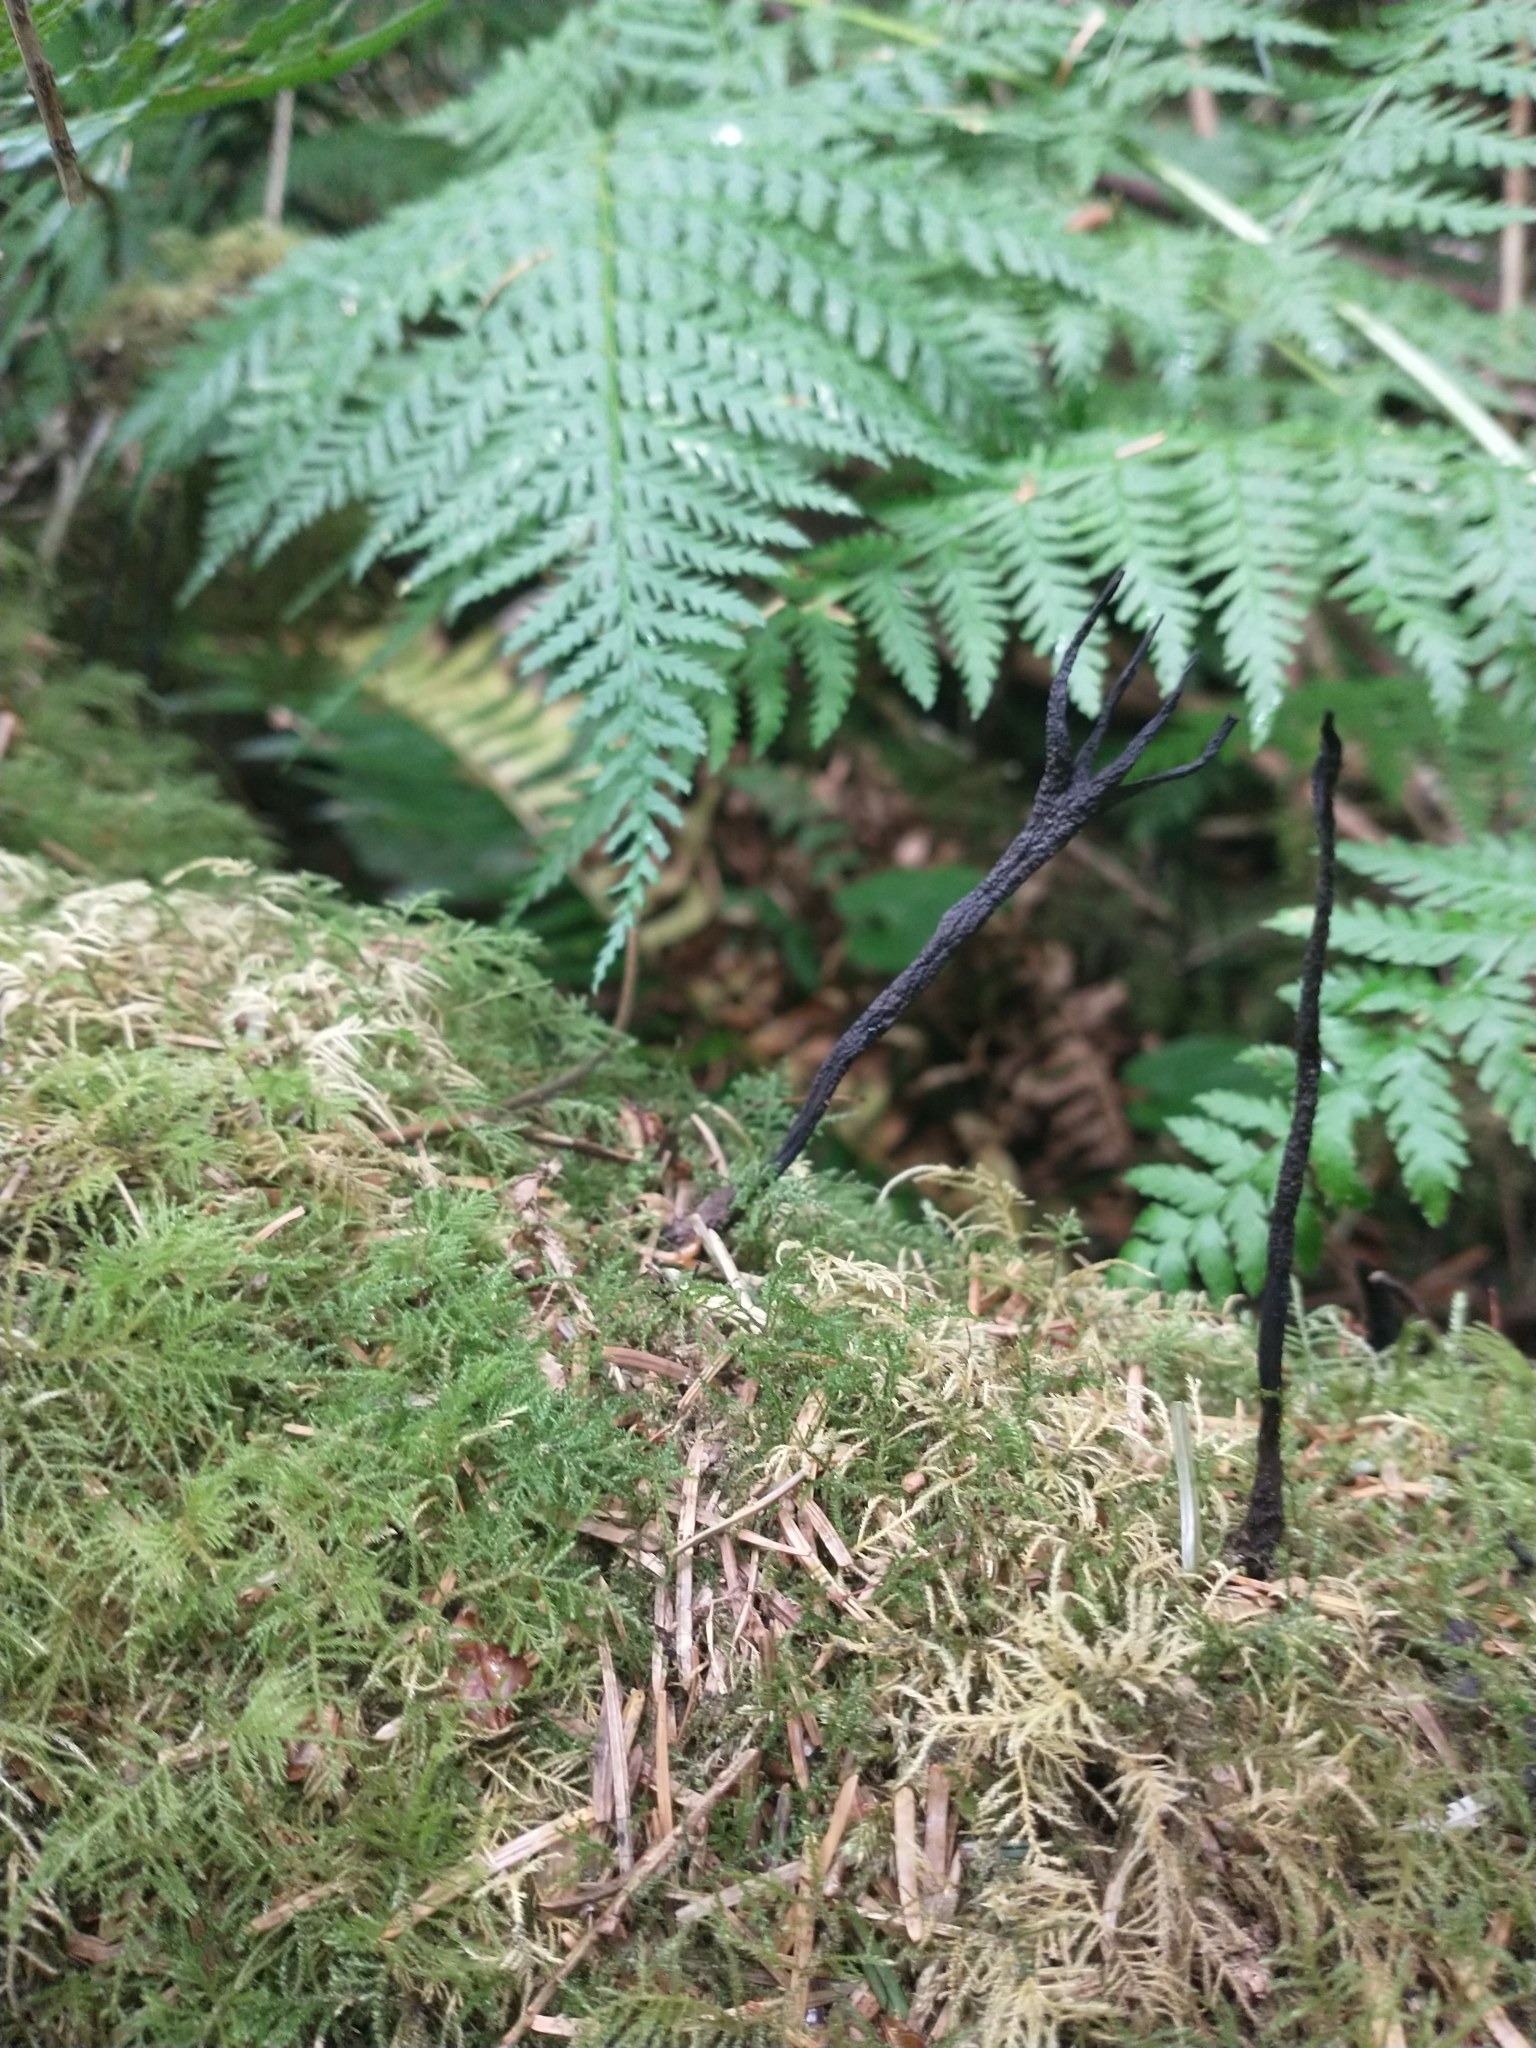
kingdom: Fungi
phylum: Ascomycota
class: Sordariomycetes
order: Xylariales
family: Xylariaceae
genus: Xylaria
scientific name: Xylaria hypoxylon
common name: Candle-snuff fungus
